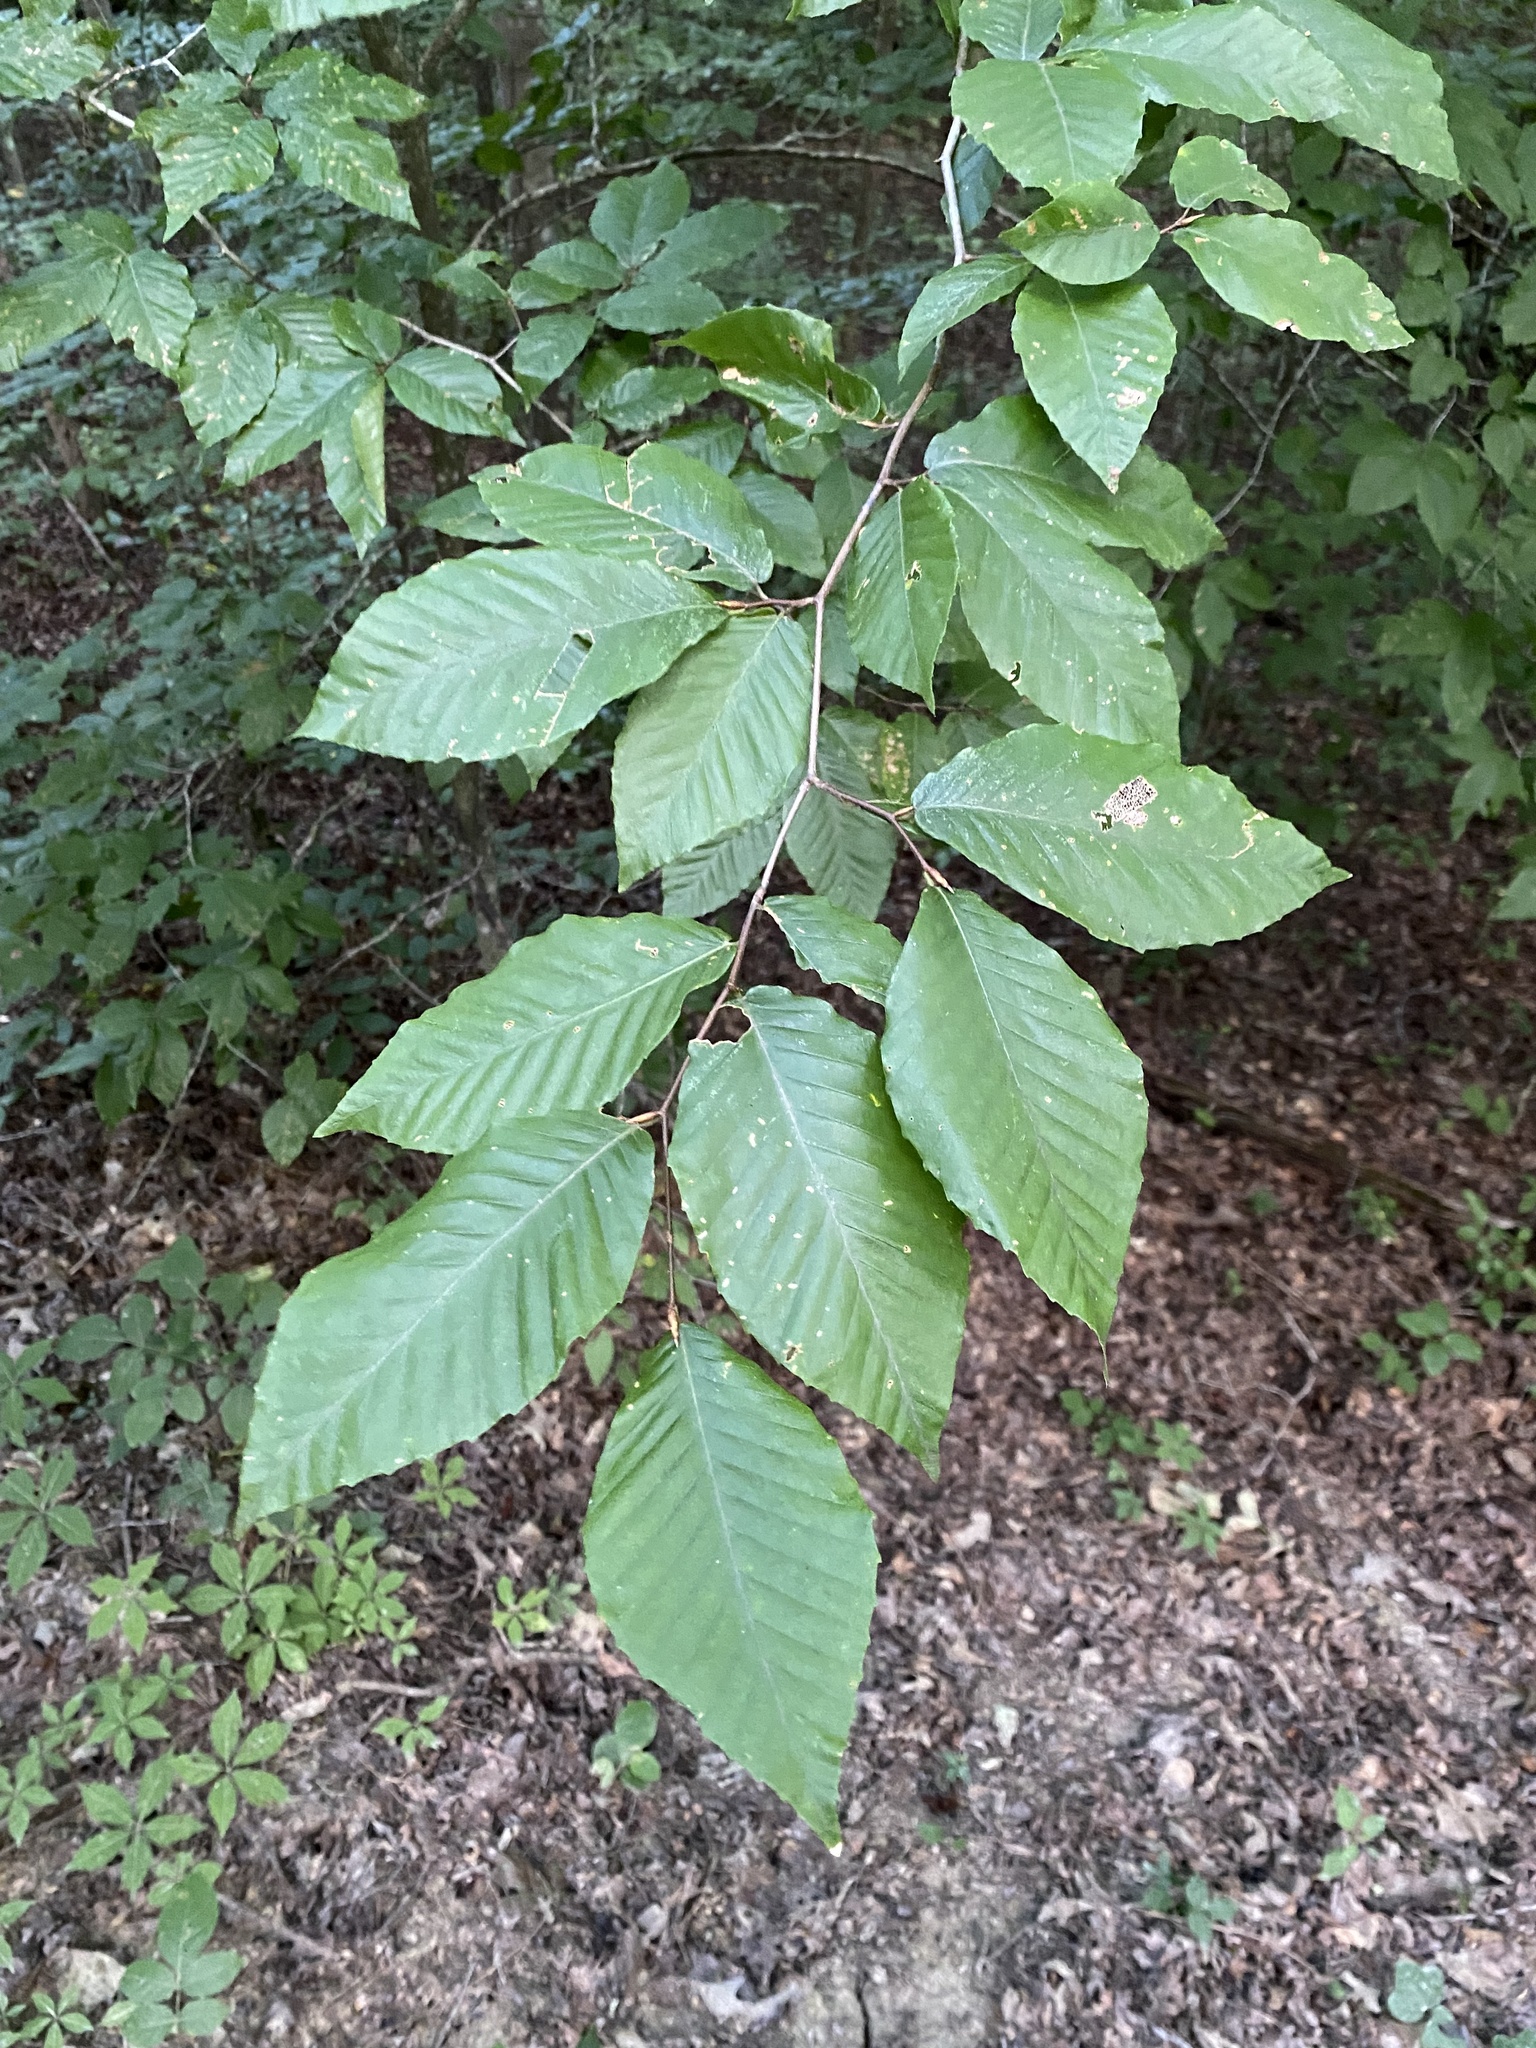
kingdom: Plantae
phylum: Tracheophyta
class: Magnoliopsida
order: Fagales
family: Fagaceae
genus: Fagus
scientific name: Fagus grandifolia
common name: American beech
